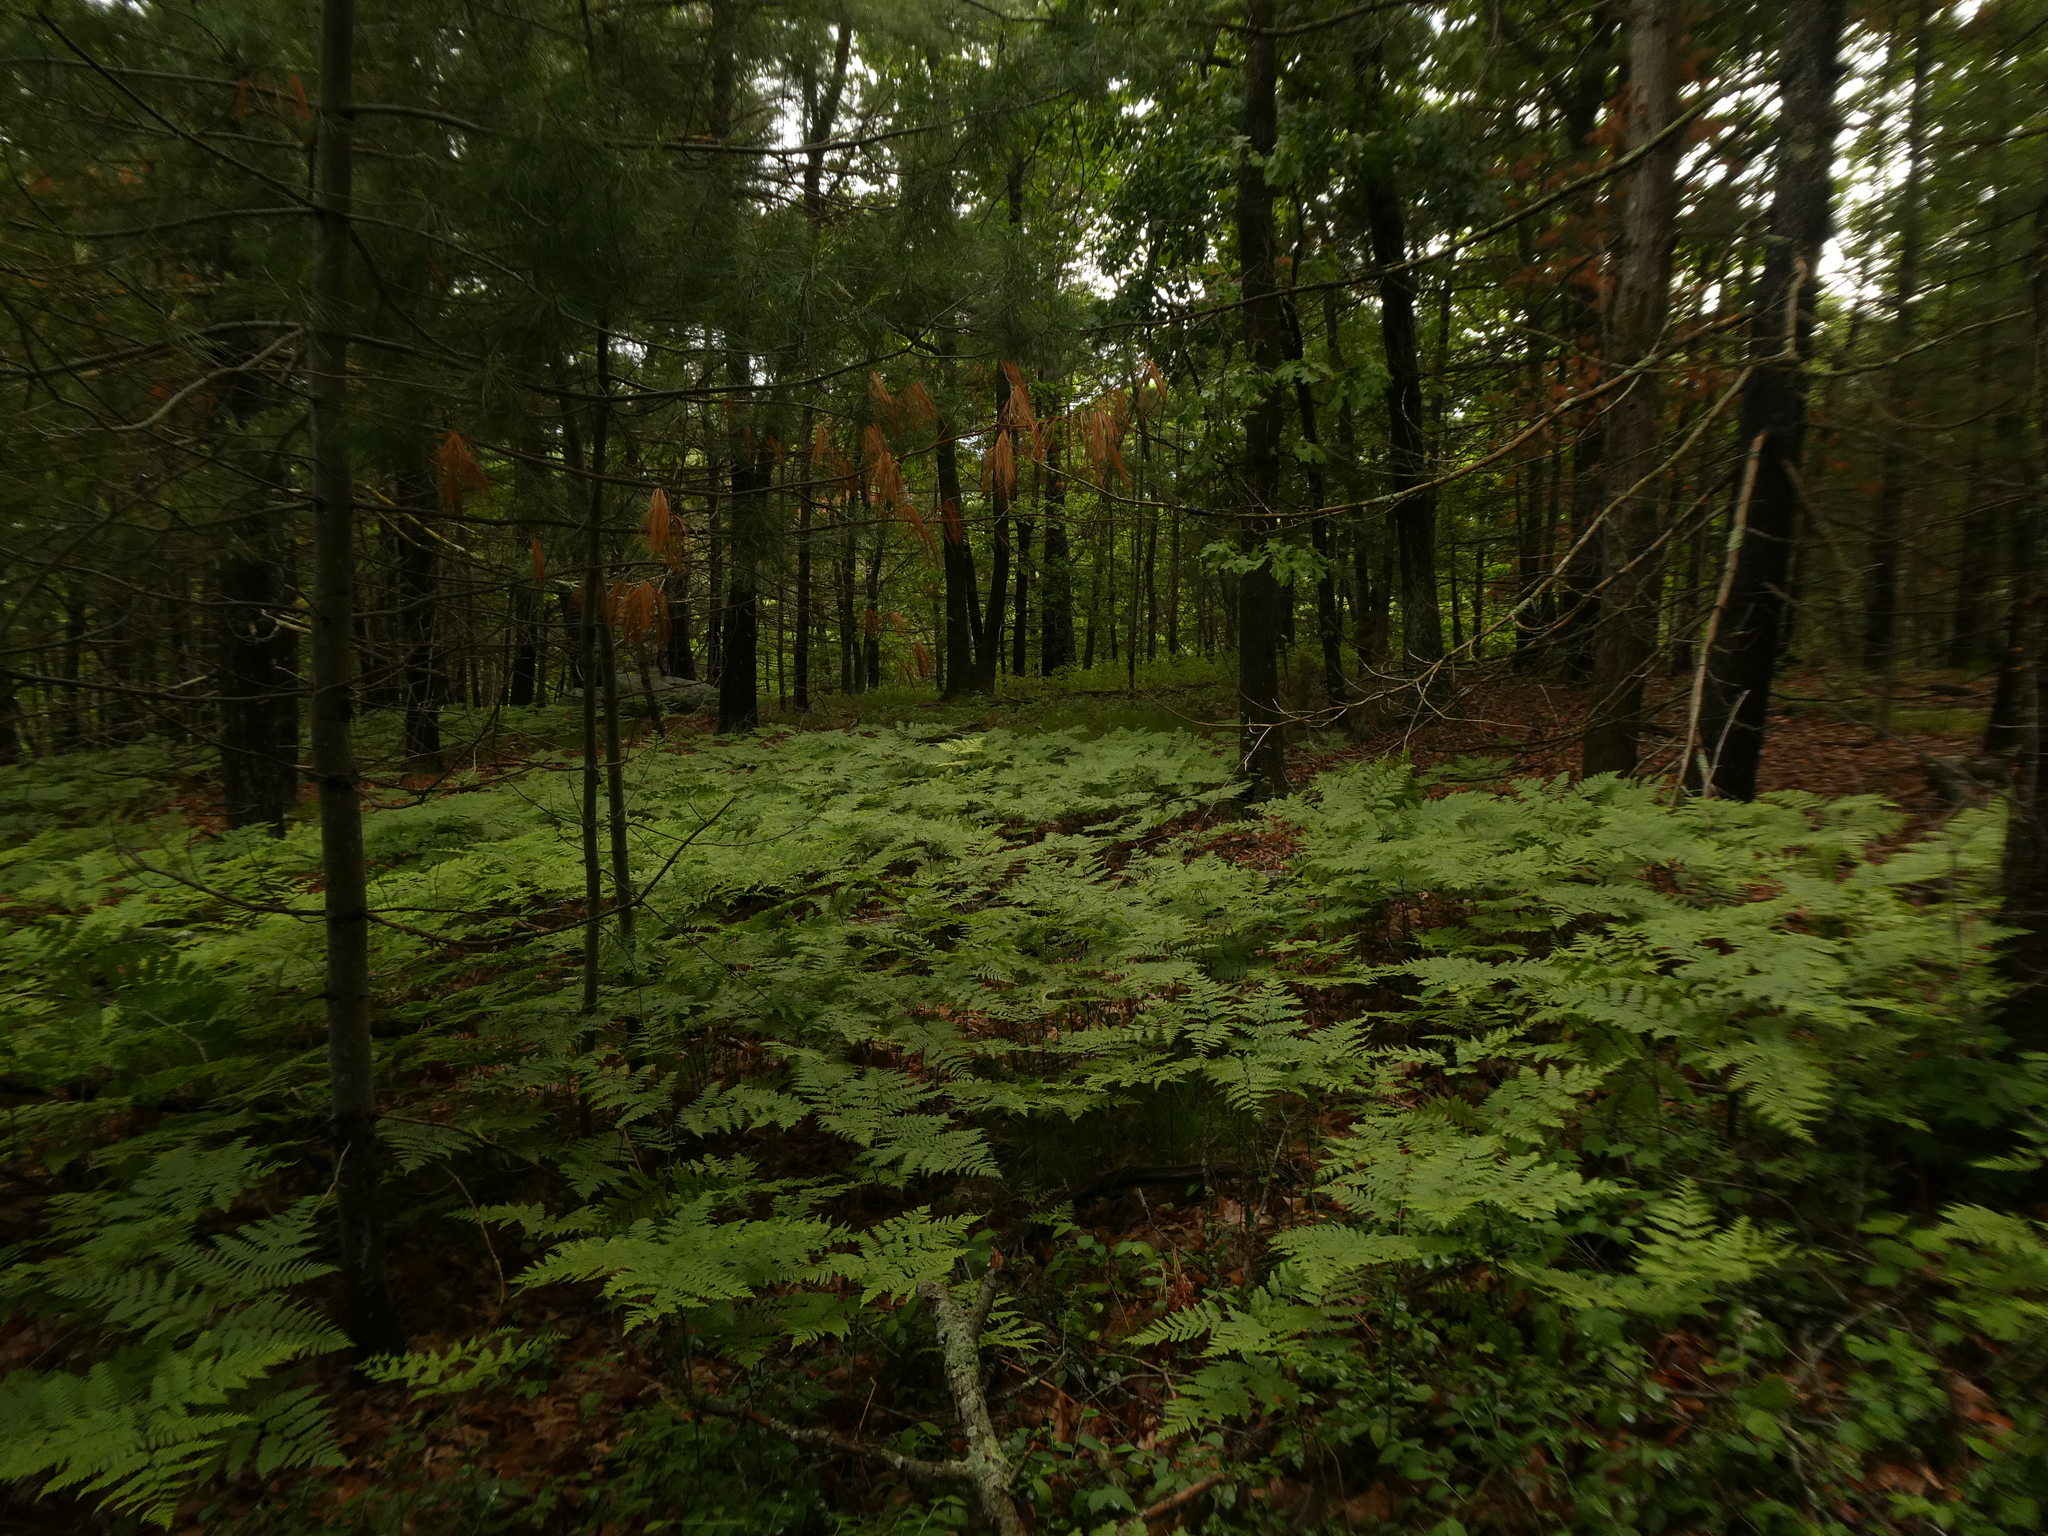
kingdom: Plantae
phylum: Tracheophyta
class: Polypodiopsida
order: Polypodiales
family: Dennstaedtiaceae
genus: Pteridium
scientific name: Pteridium aquilinum
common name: Bracken
